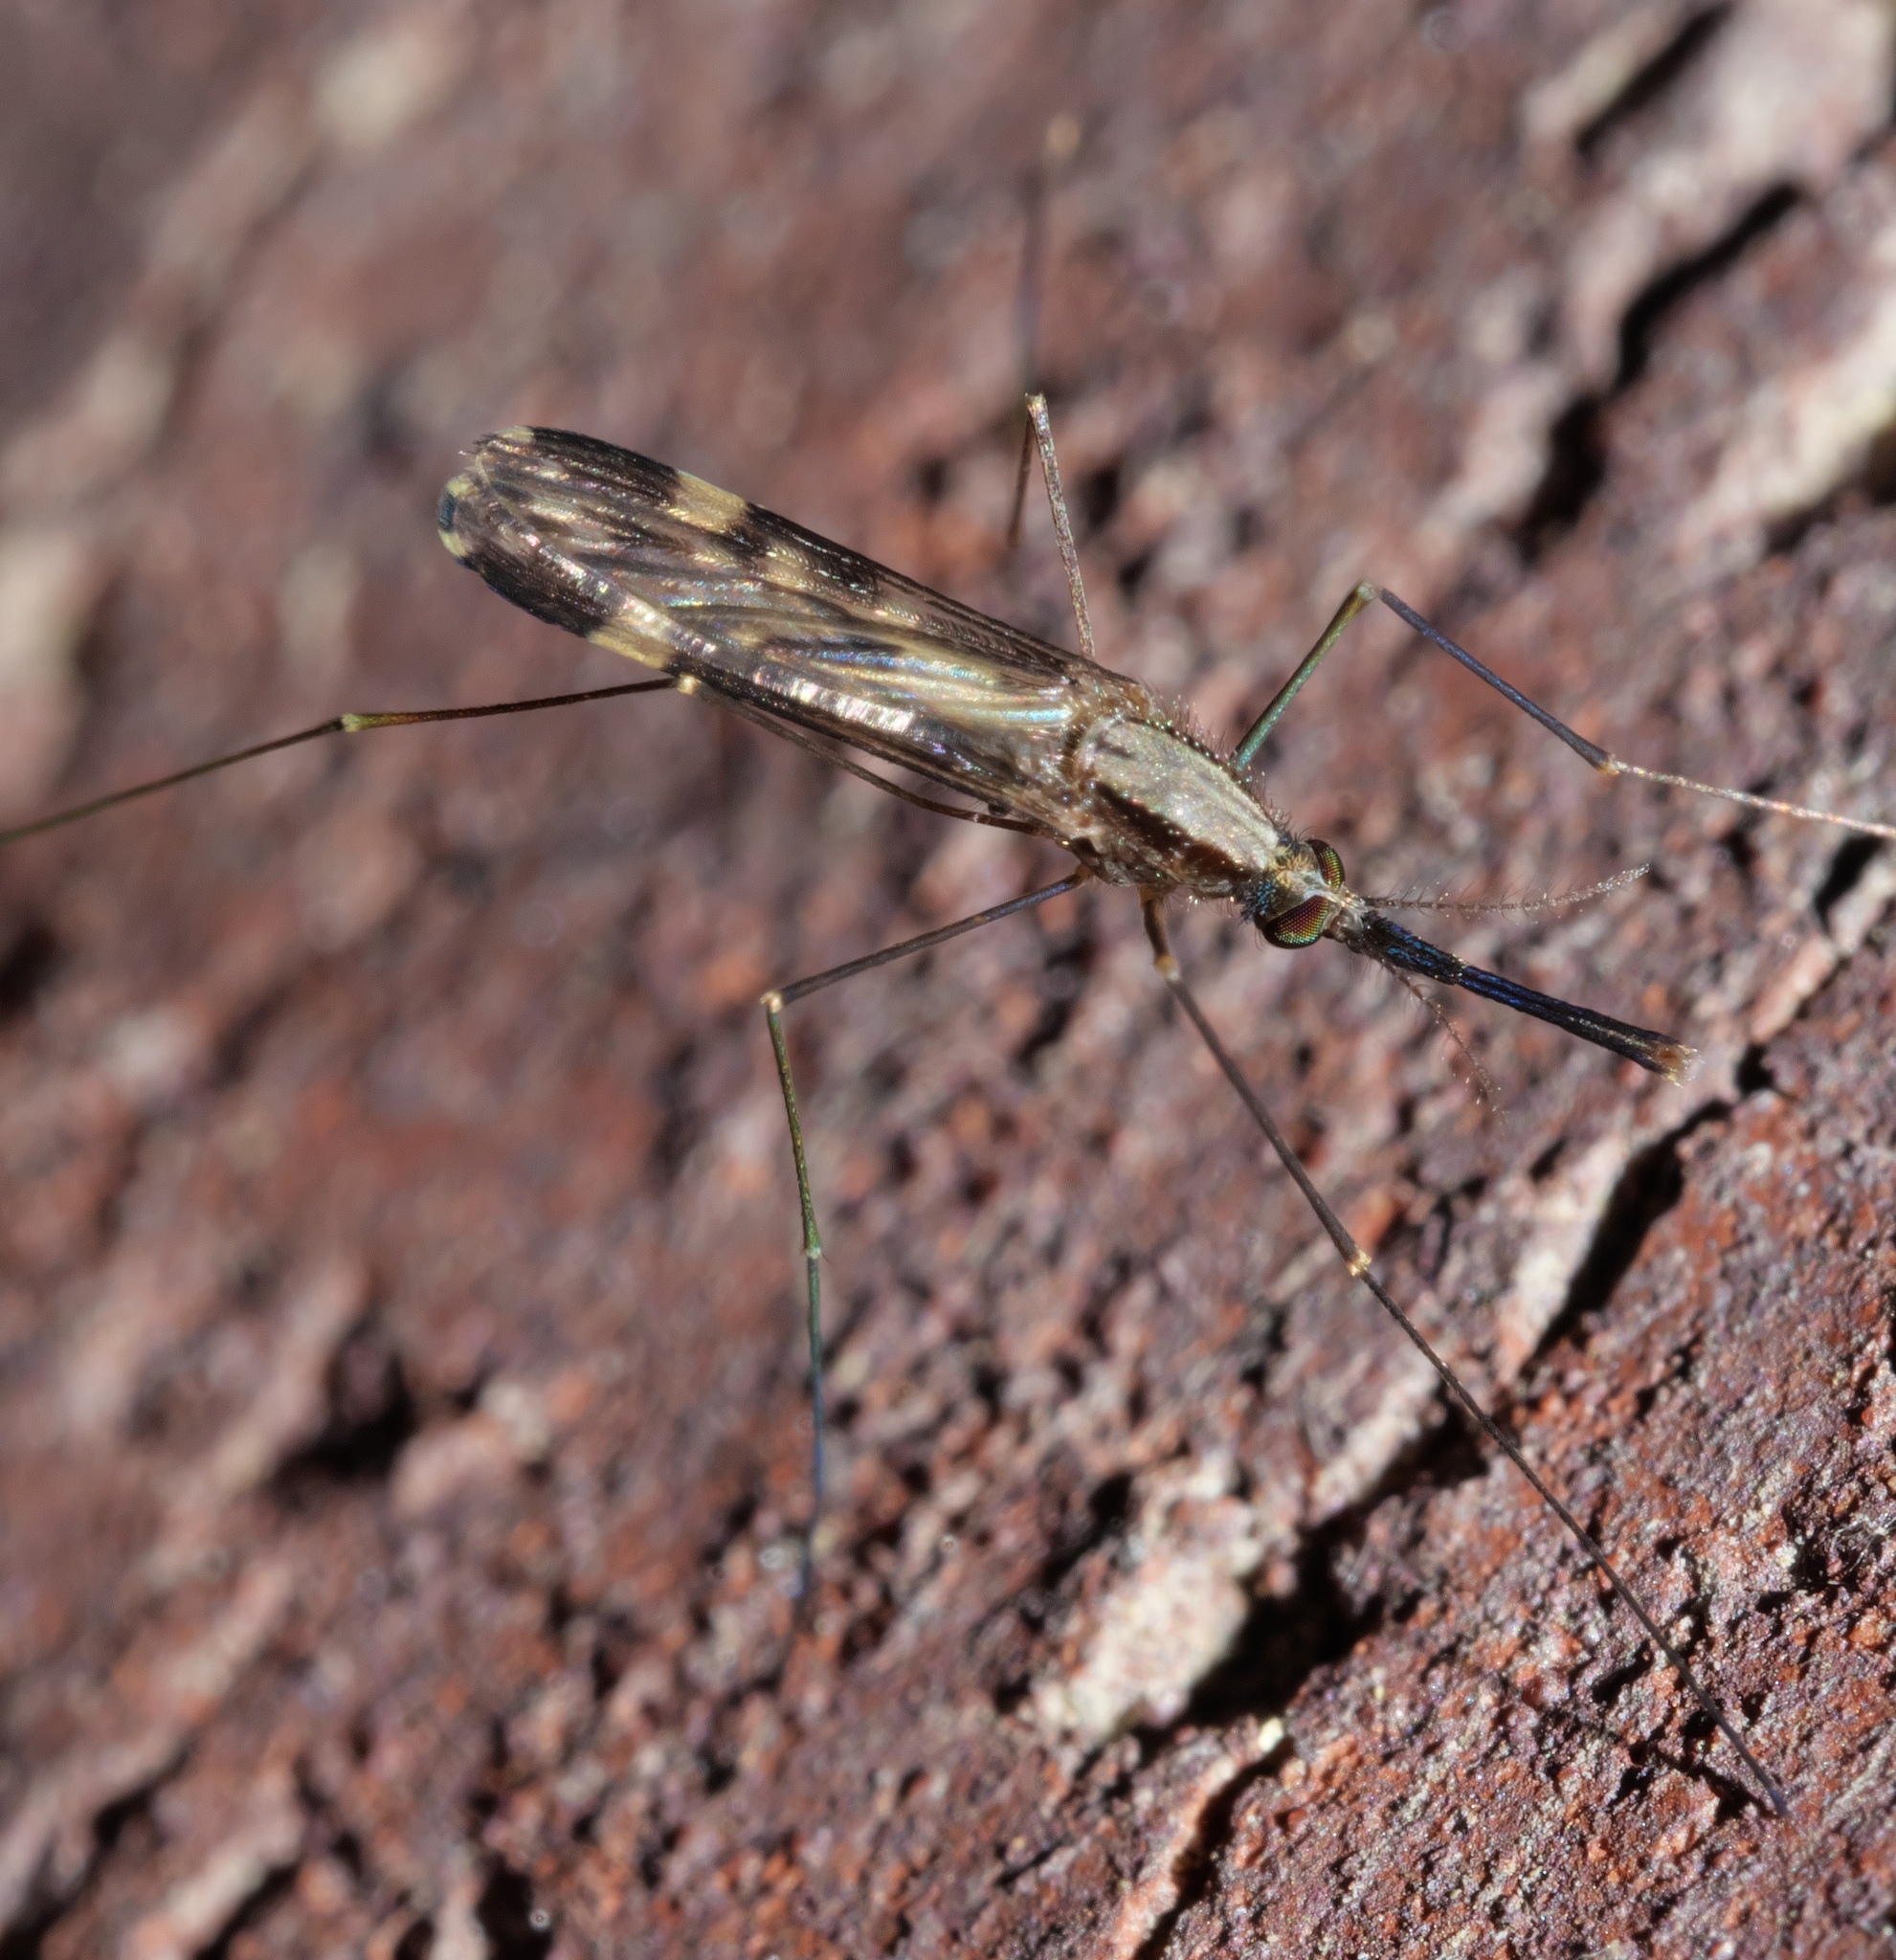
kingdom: Animalia
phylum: Arthropoda
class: Insecta
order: Diptera
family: Culicidae
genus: Anopheles
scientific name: Anopheles punctipennis
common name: Woodland malaria mosquito
